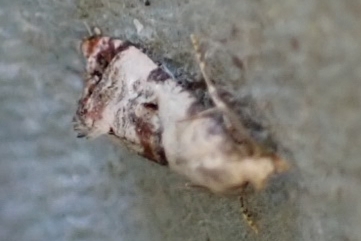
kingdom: Animalia
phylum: Arthropoda
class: Insecta
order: Lepidoptera
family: Tortricidae
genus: Cochylis
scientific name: Cochylis hybridella
